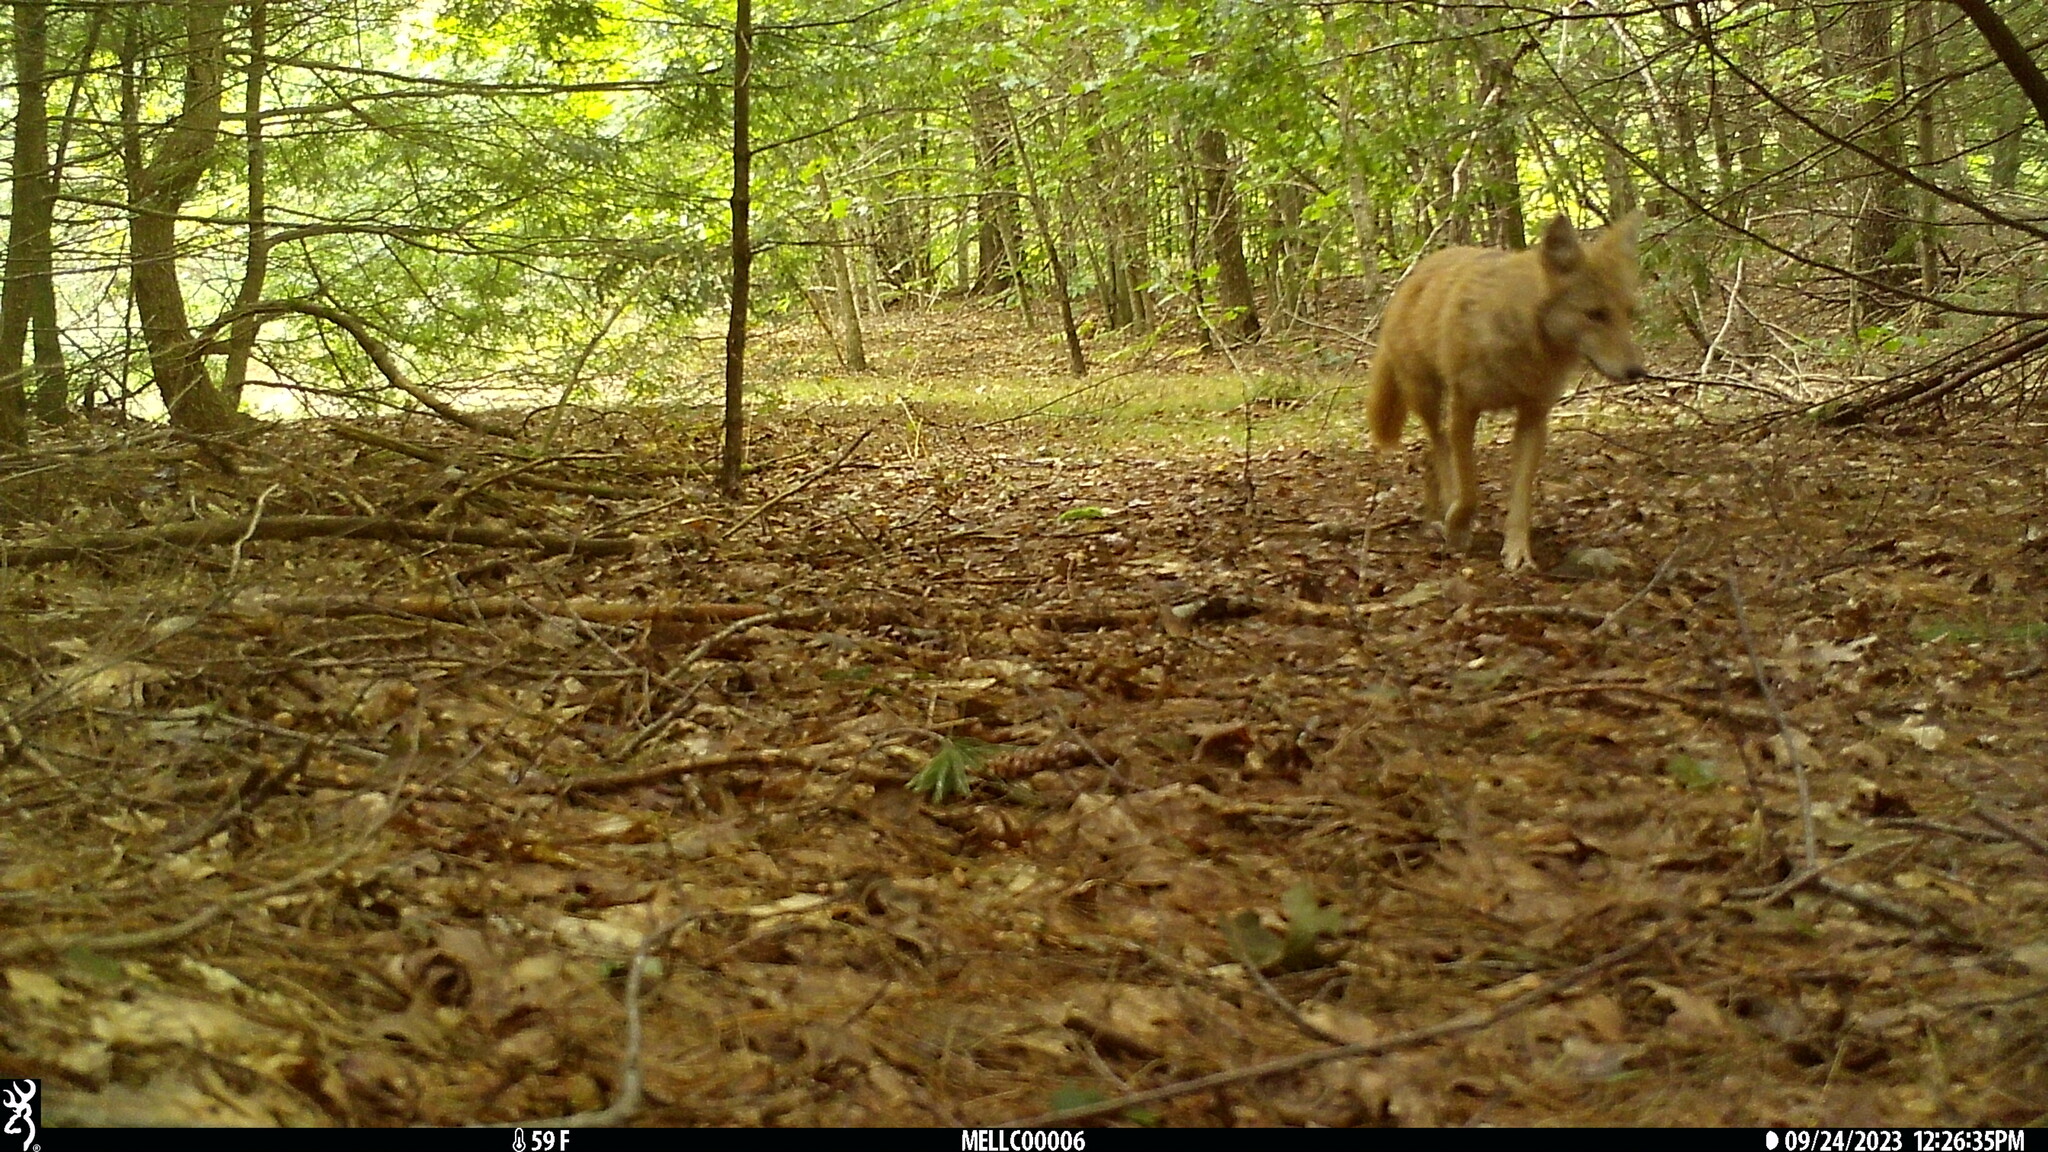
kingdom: Animalia
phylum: Chordata
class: Mammalia
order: Carnivora
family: Canidae
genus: Canis
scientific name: Canis latrans
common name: Coyote
